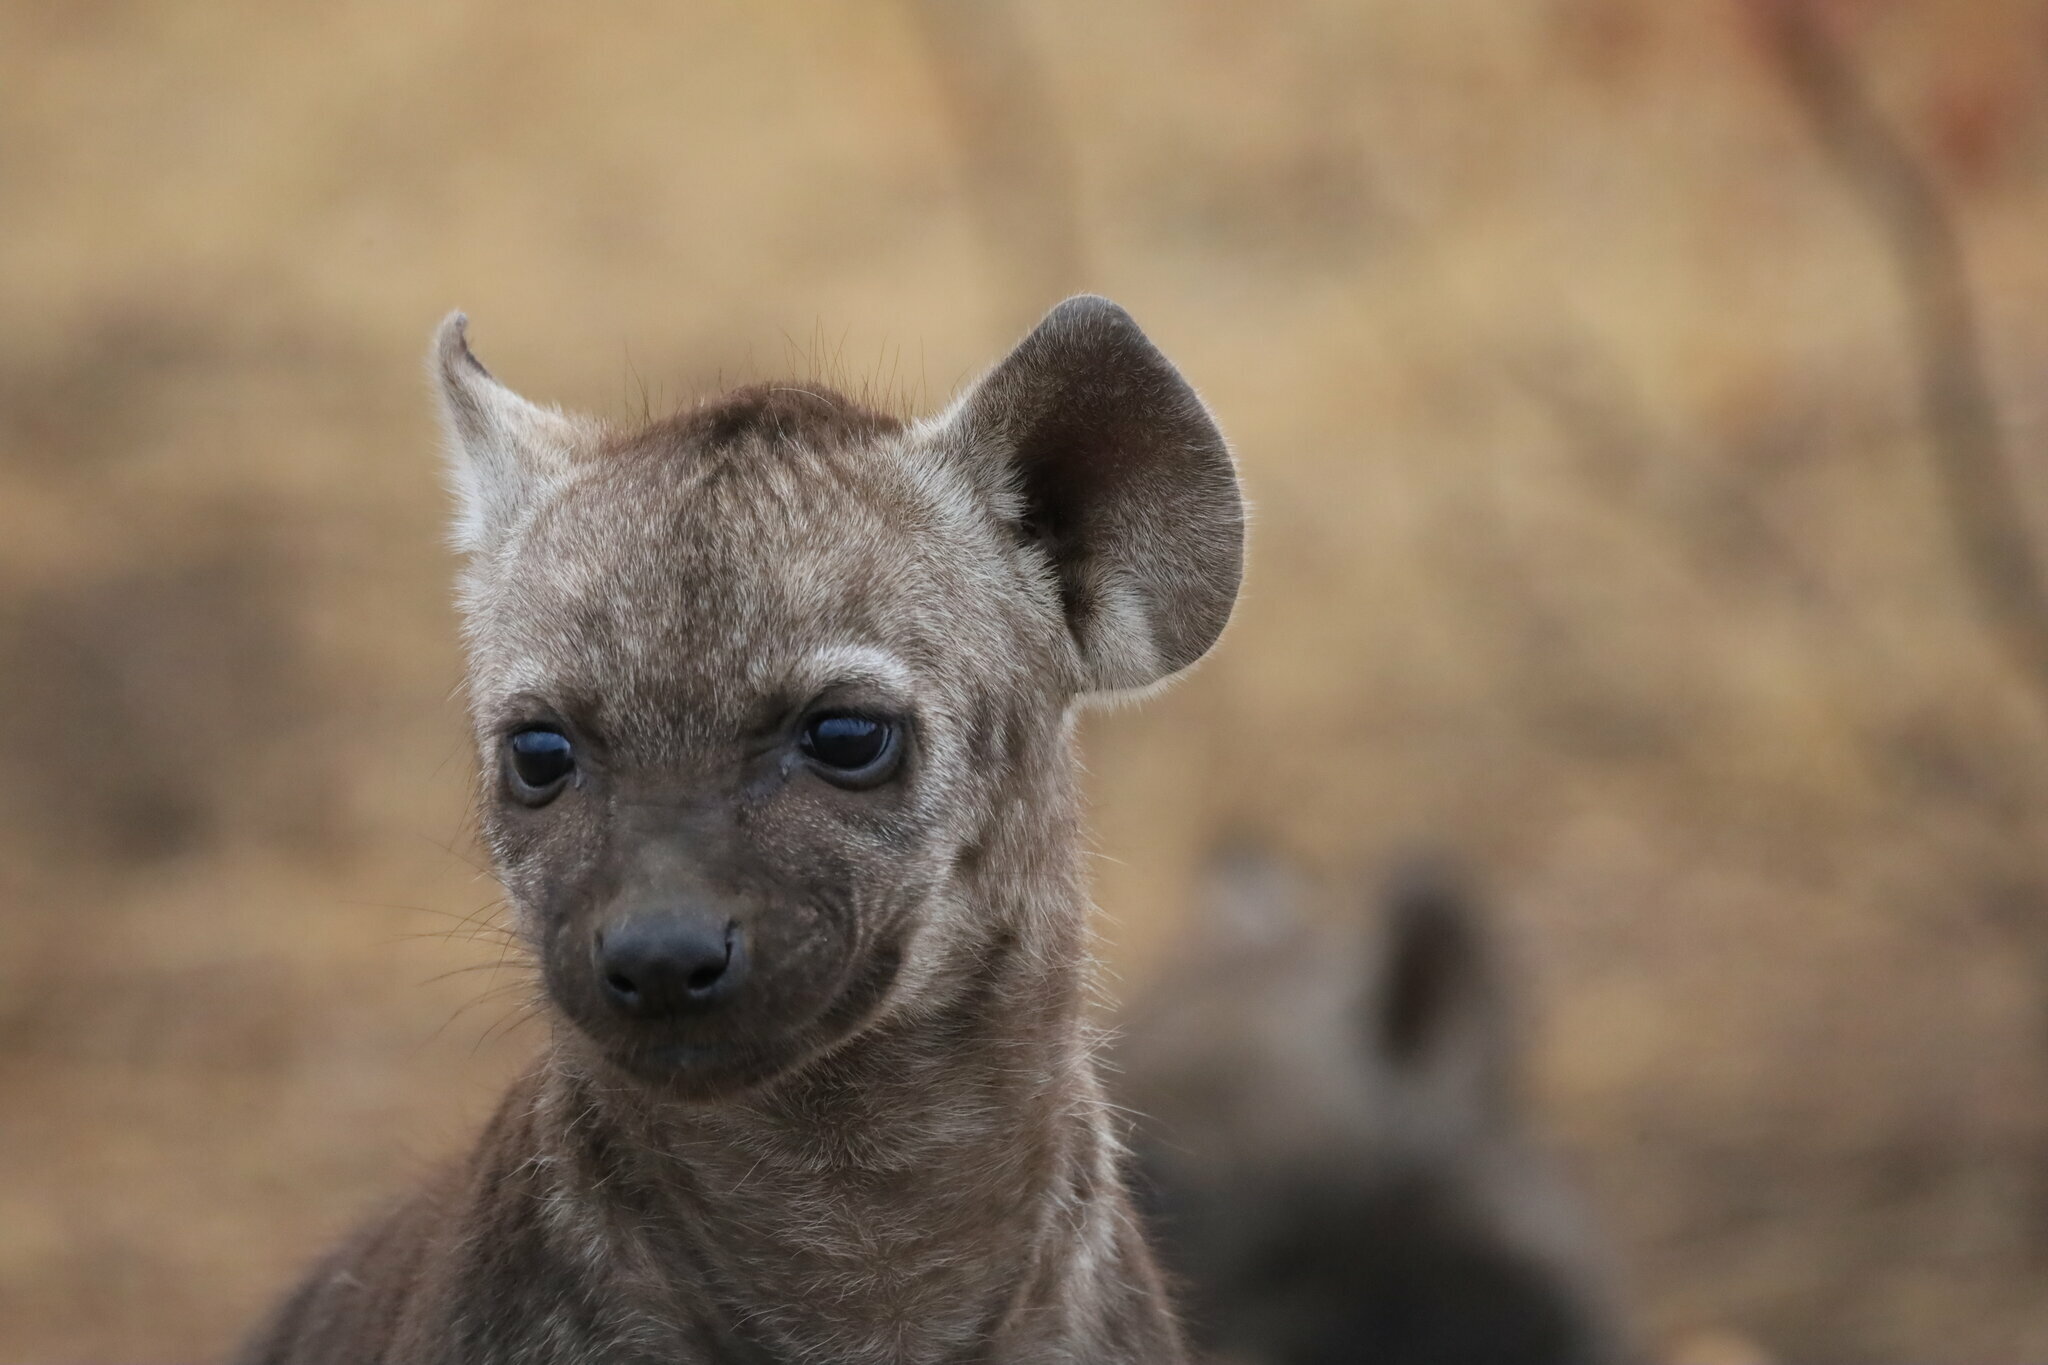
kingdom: Animalia
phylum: Chordata
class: Mammalia
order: Carnivora
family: Hyaenidae
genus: Crocuta
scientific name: Crocuta crocuta
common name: Spotted hyaena
